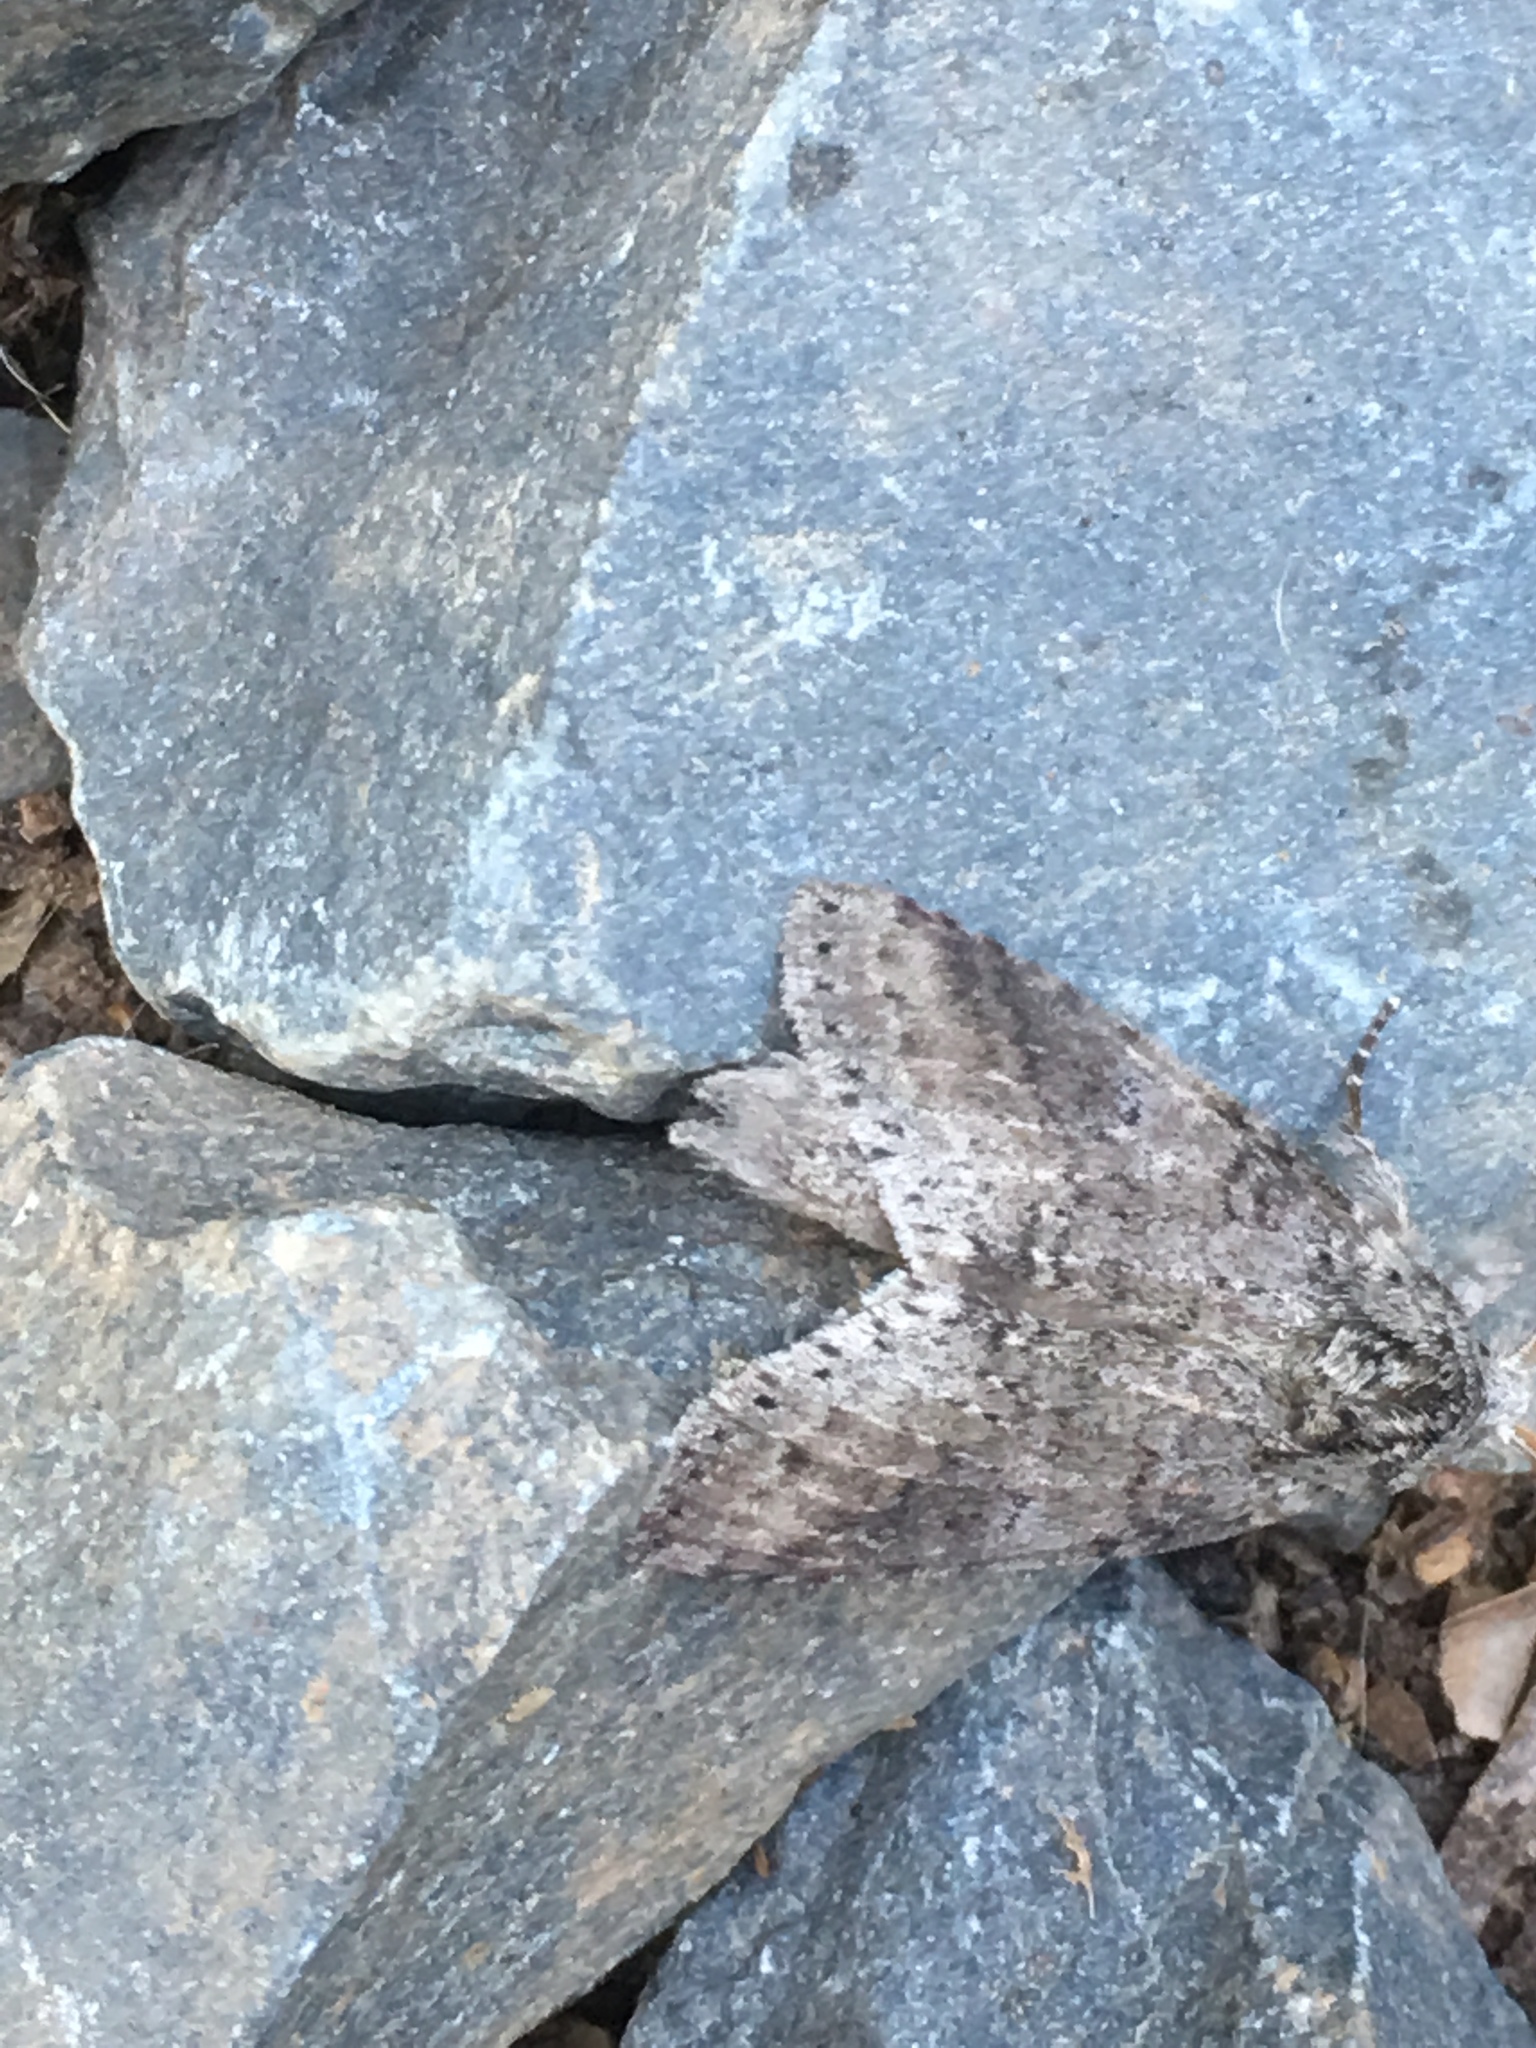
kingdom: Animalia
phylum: Arthropoda
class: Insecta
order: Lepidoptera
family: Notodontidae
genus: Lochmaeus
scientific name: Lochmaeus manteo
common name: Variable oakleaf caterpillar moth
